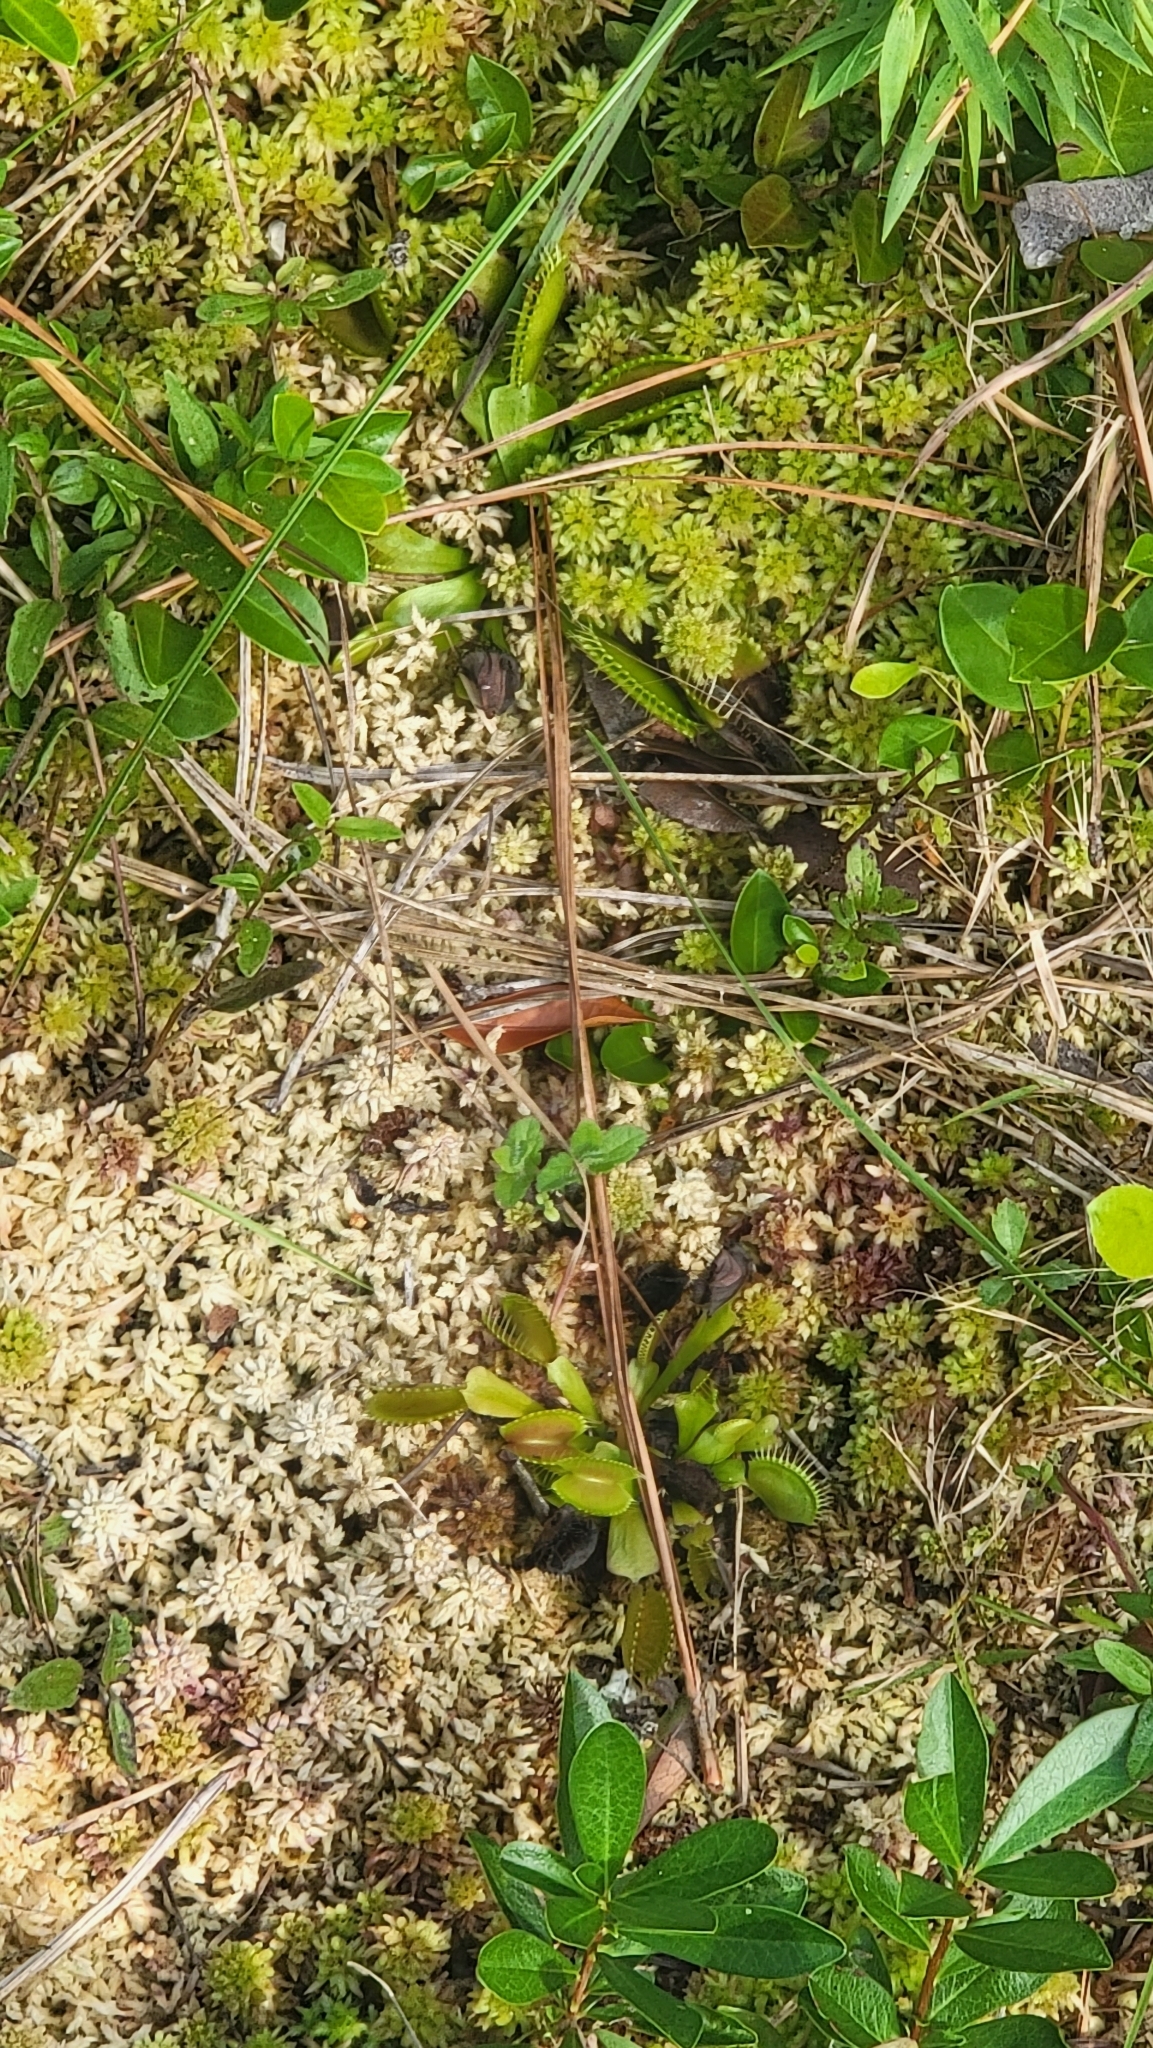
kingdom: Plantae
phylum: Tracheophyta
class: Magnoliopsida
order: Caryophyllales
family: Droseraceae
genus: Dionaea
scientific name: Dionaea muscipula
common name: Venus flytrap
